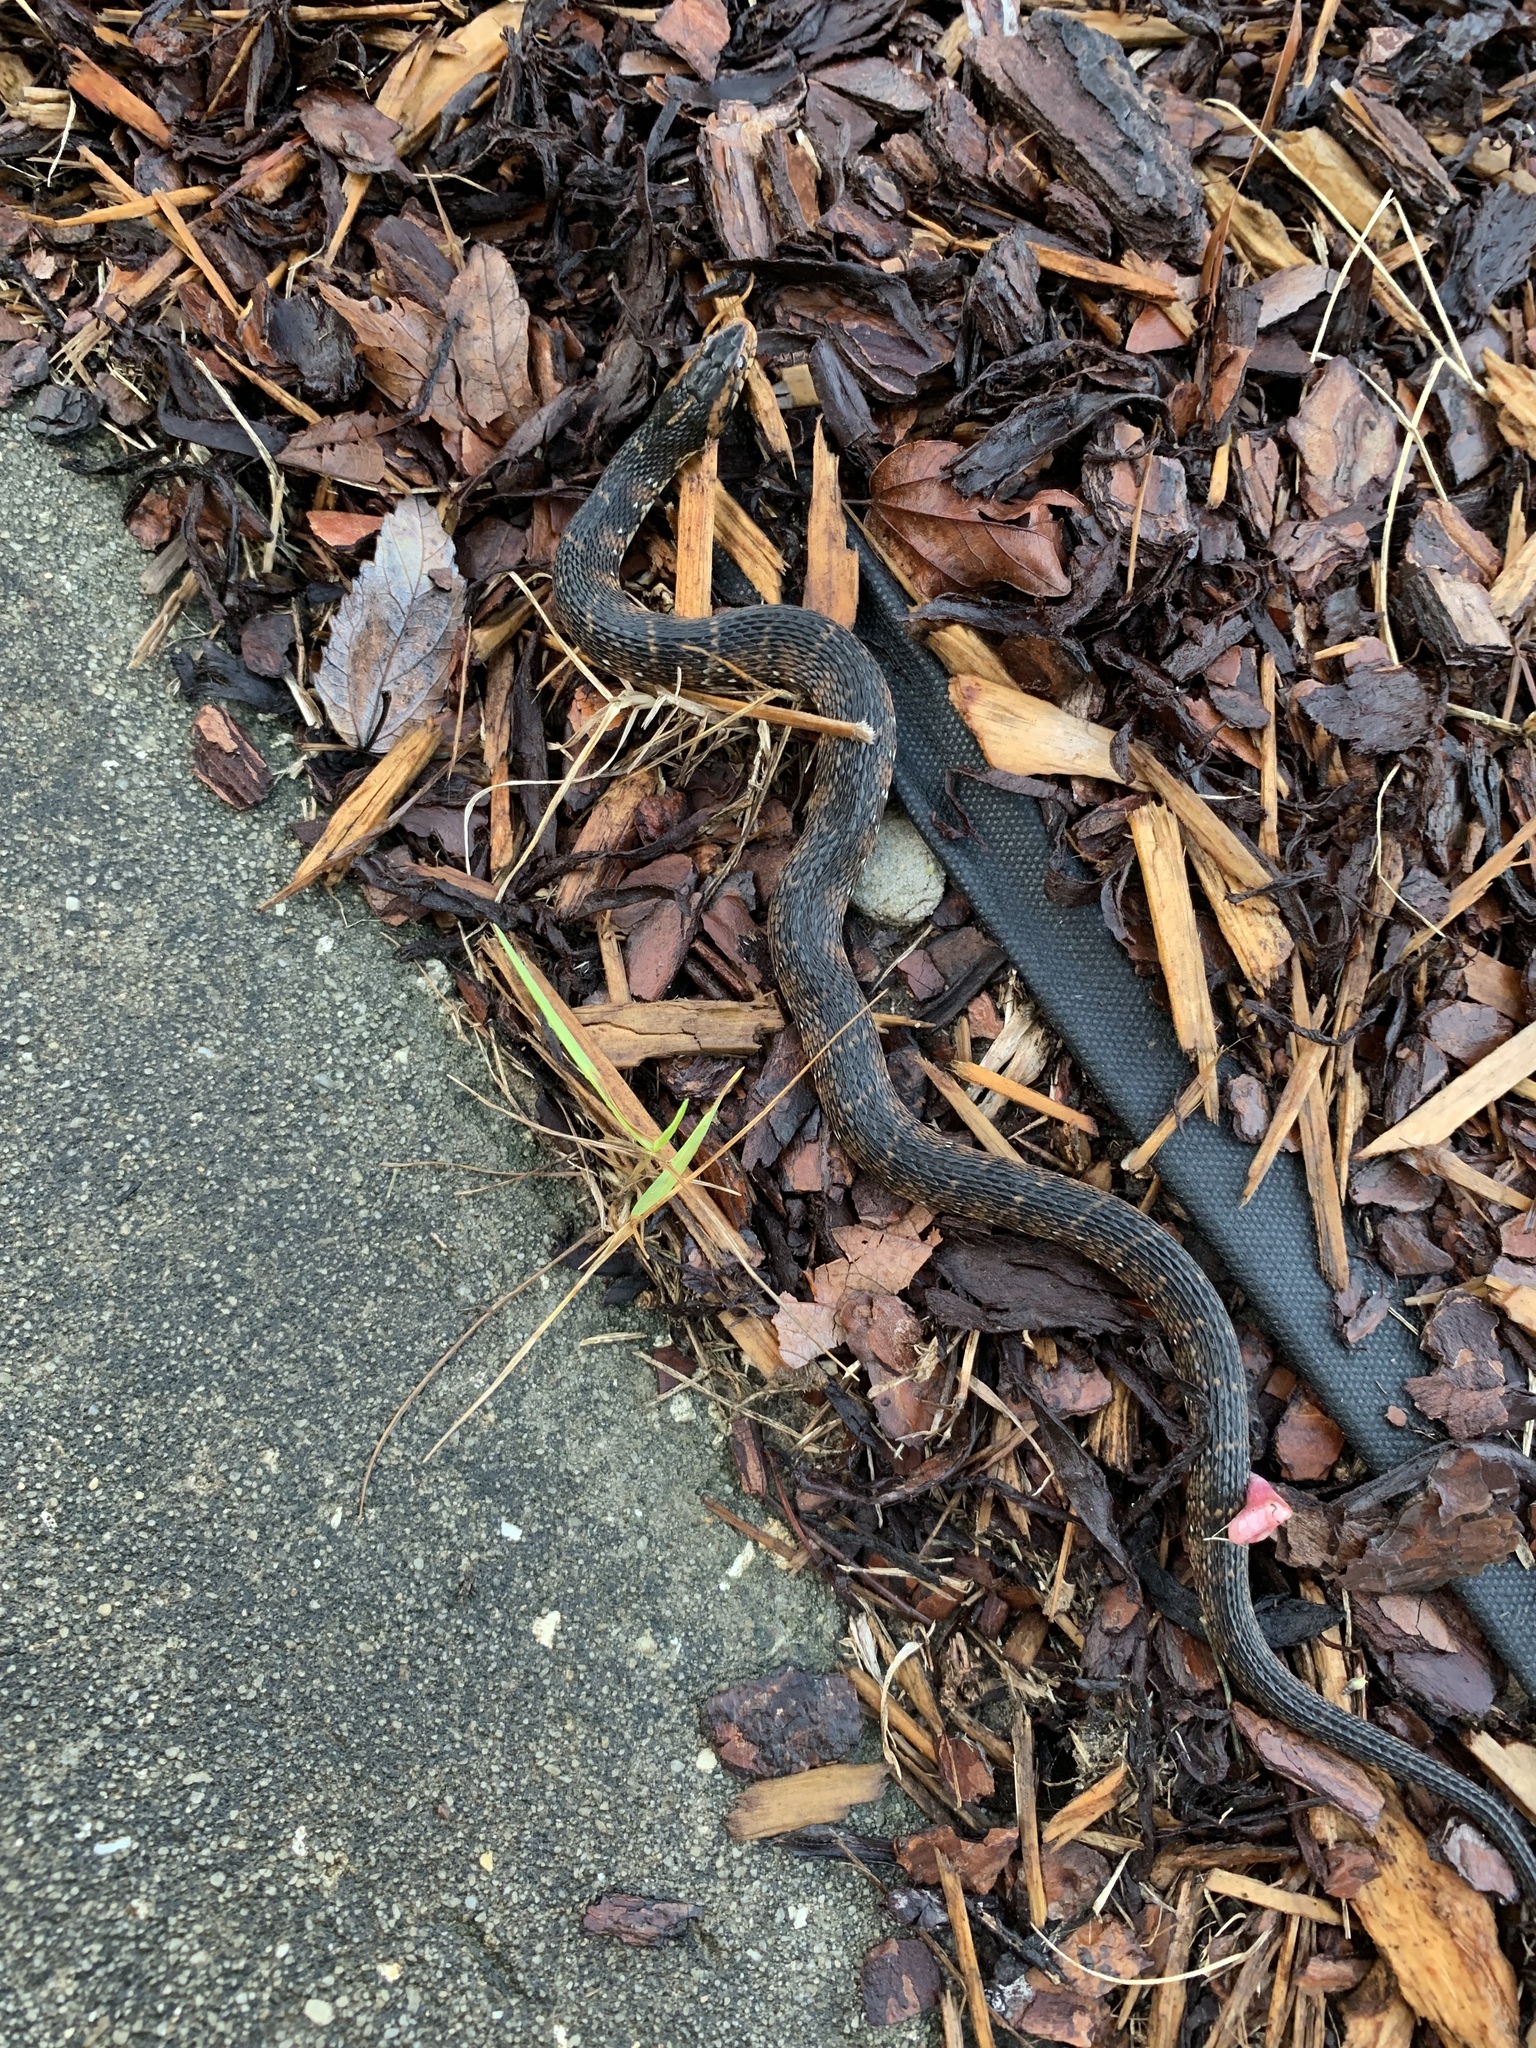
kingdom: Animalia
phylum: Chordata
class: Squamata
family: Colubridae
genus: Nerodia
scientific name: Nerodia fasciata
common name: Southern water snake
